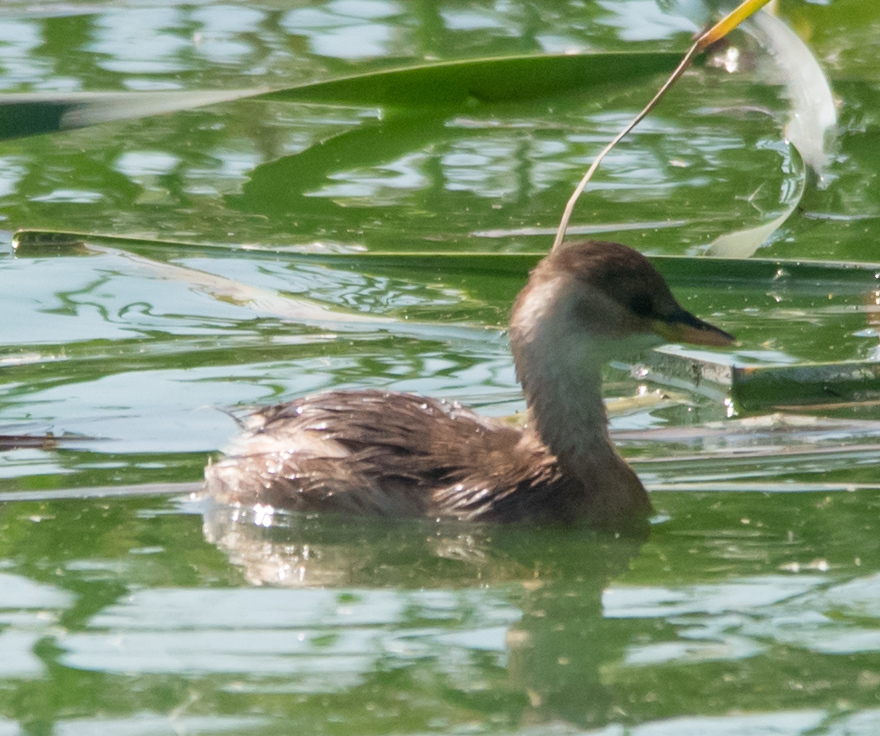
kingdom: Animalia
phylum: Chordata
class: Aves
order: Podicipediformes
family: Podicipedidae
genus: Tachybaptus
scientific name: Tachybaptus ruficollis
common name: Little grebe
